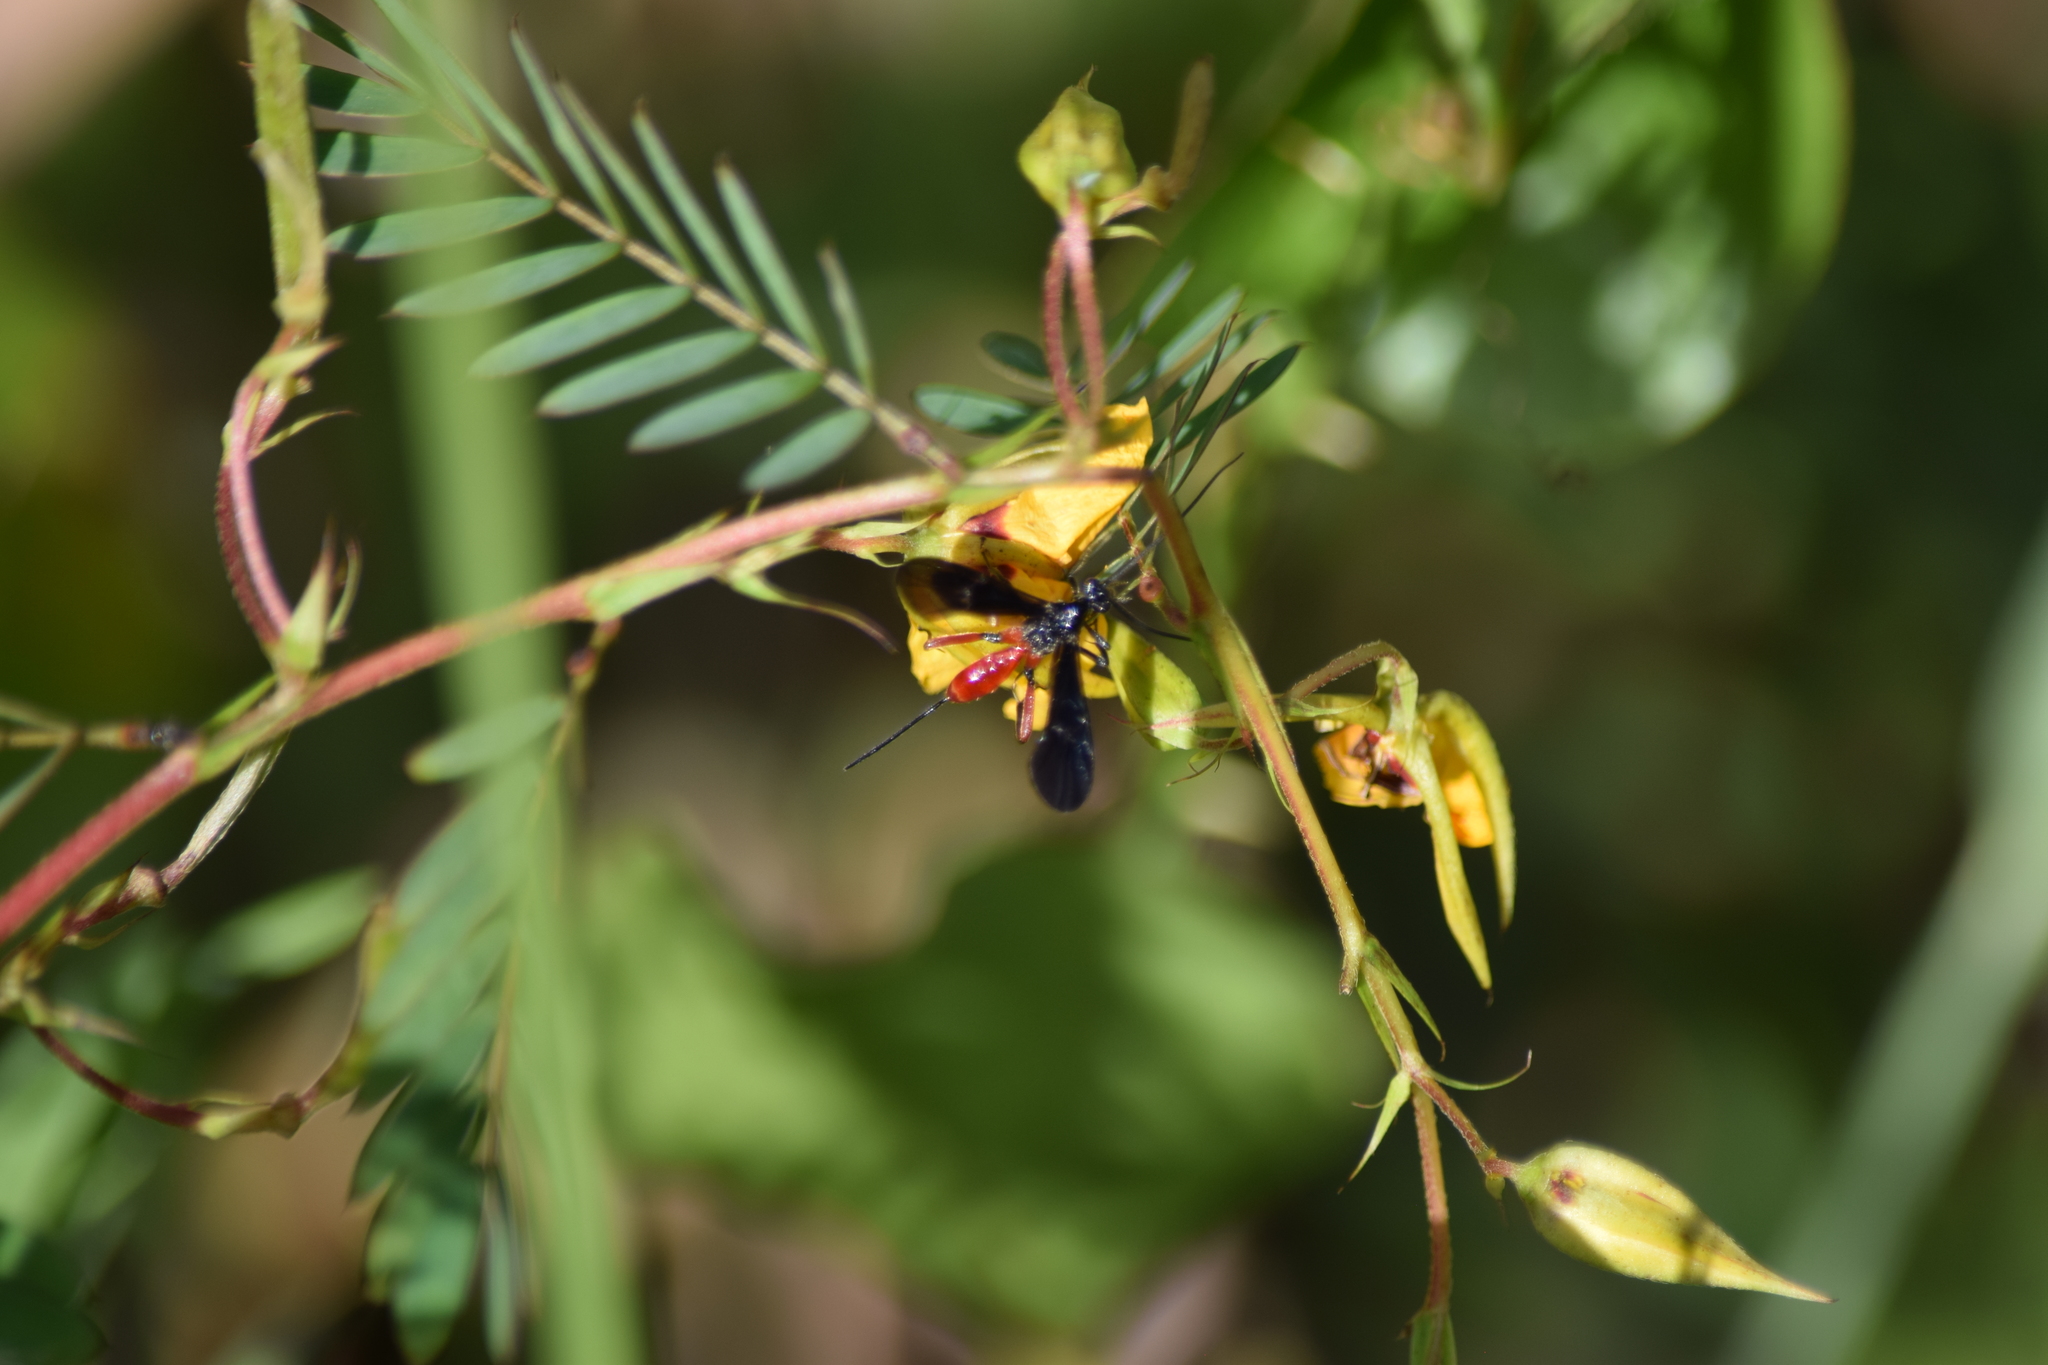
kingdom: Animalia
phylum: Arthropoda
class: Insecta
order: Hymenoptera
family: Braconidae
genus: Alabagrus
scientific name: Alabagrus texanus
